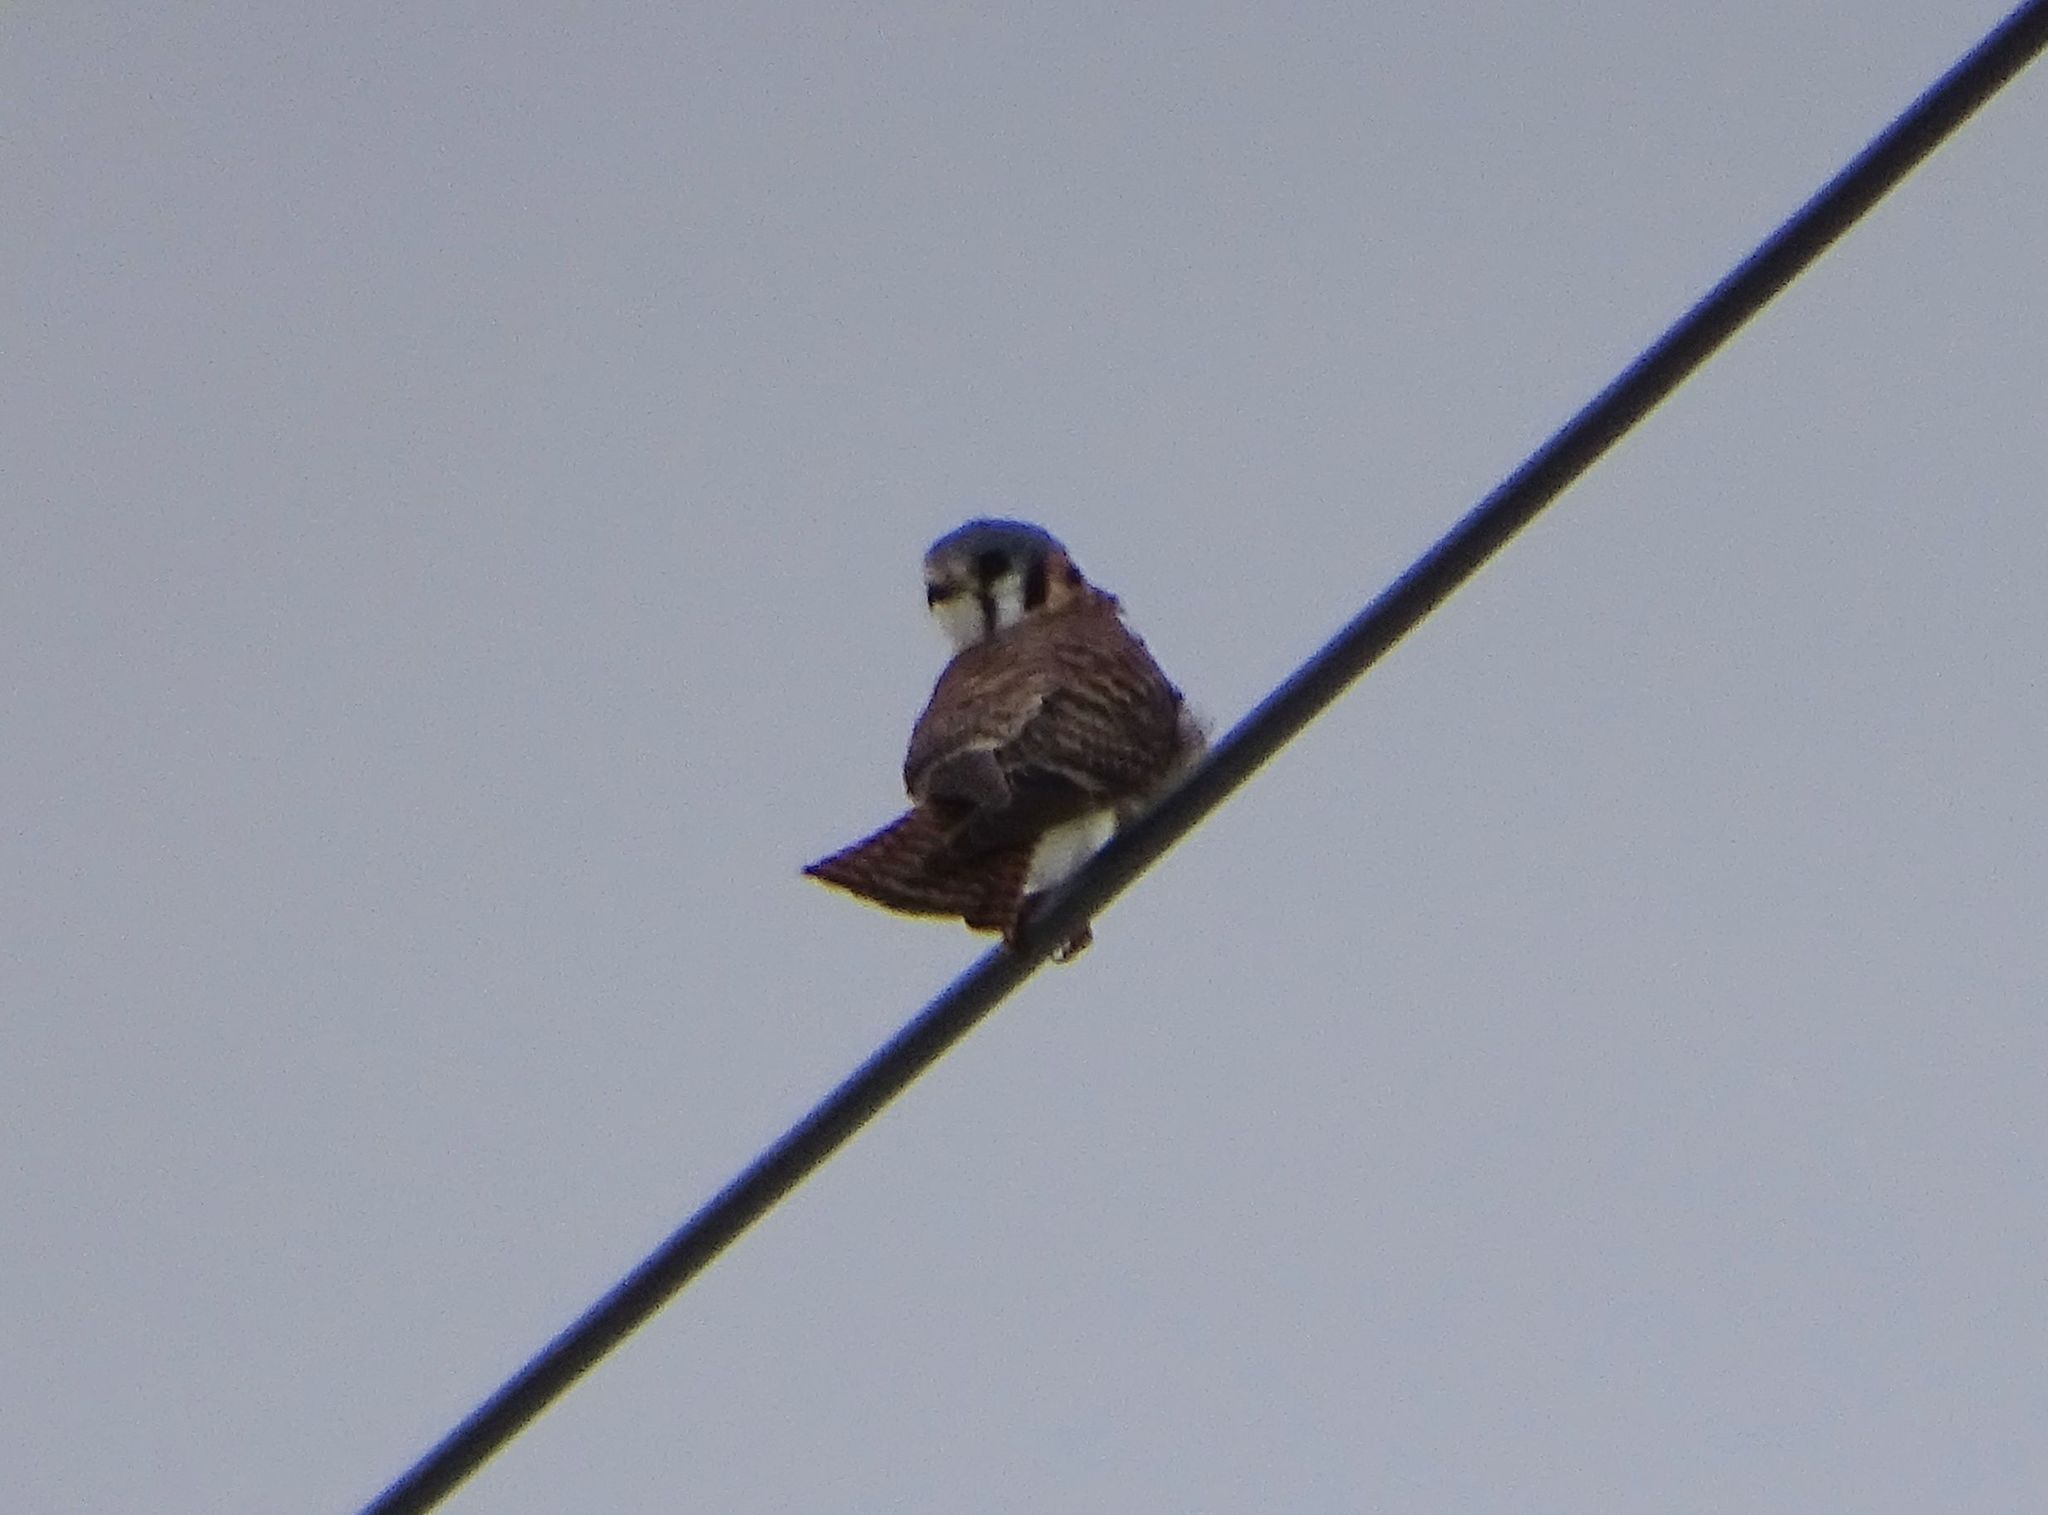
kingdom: Animalia
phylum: Chordata
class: Aves
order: Falconiformes
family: Falconidae
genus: Falco
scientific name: Falco sparverius
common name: American kestrel
